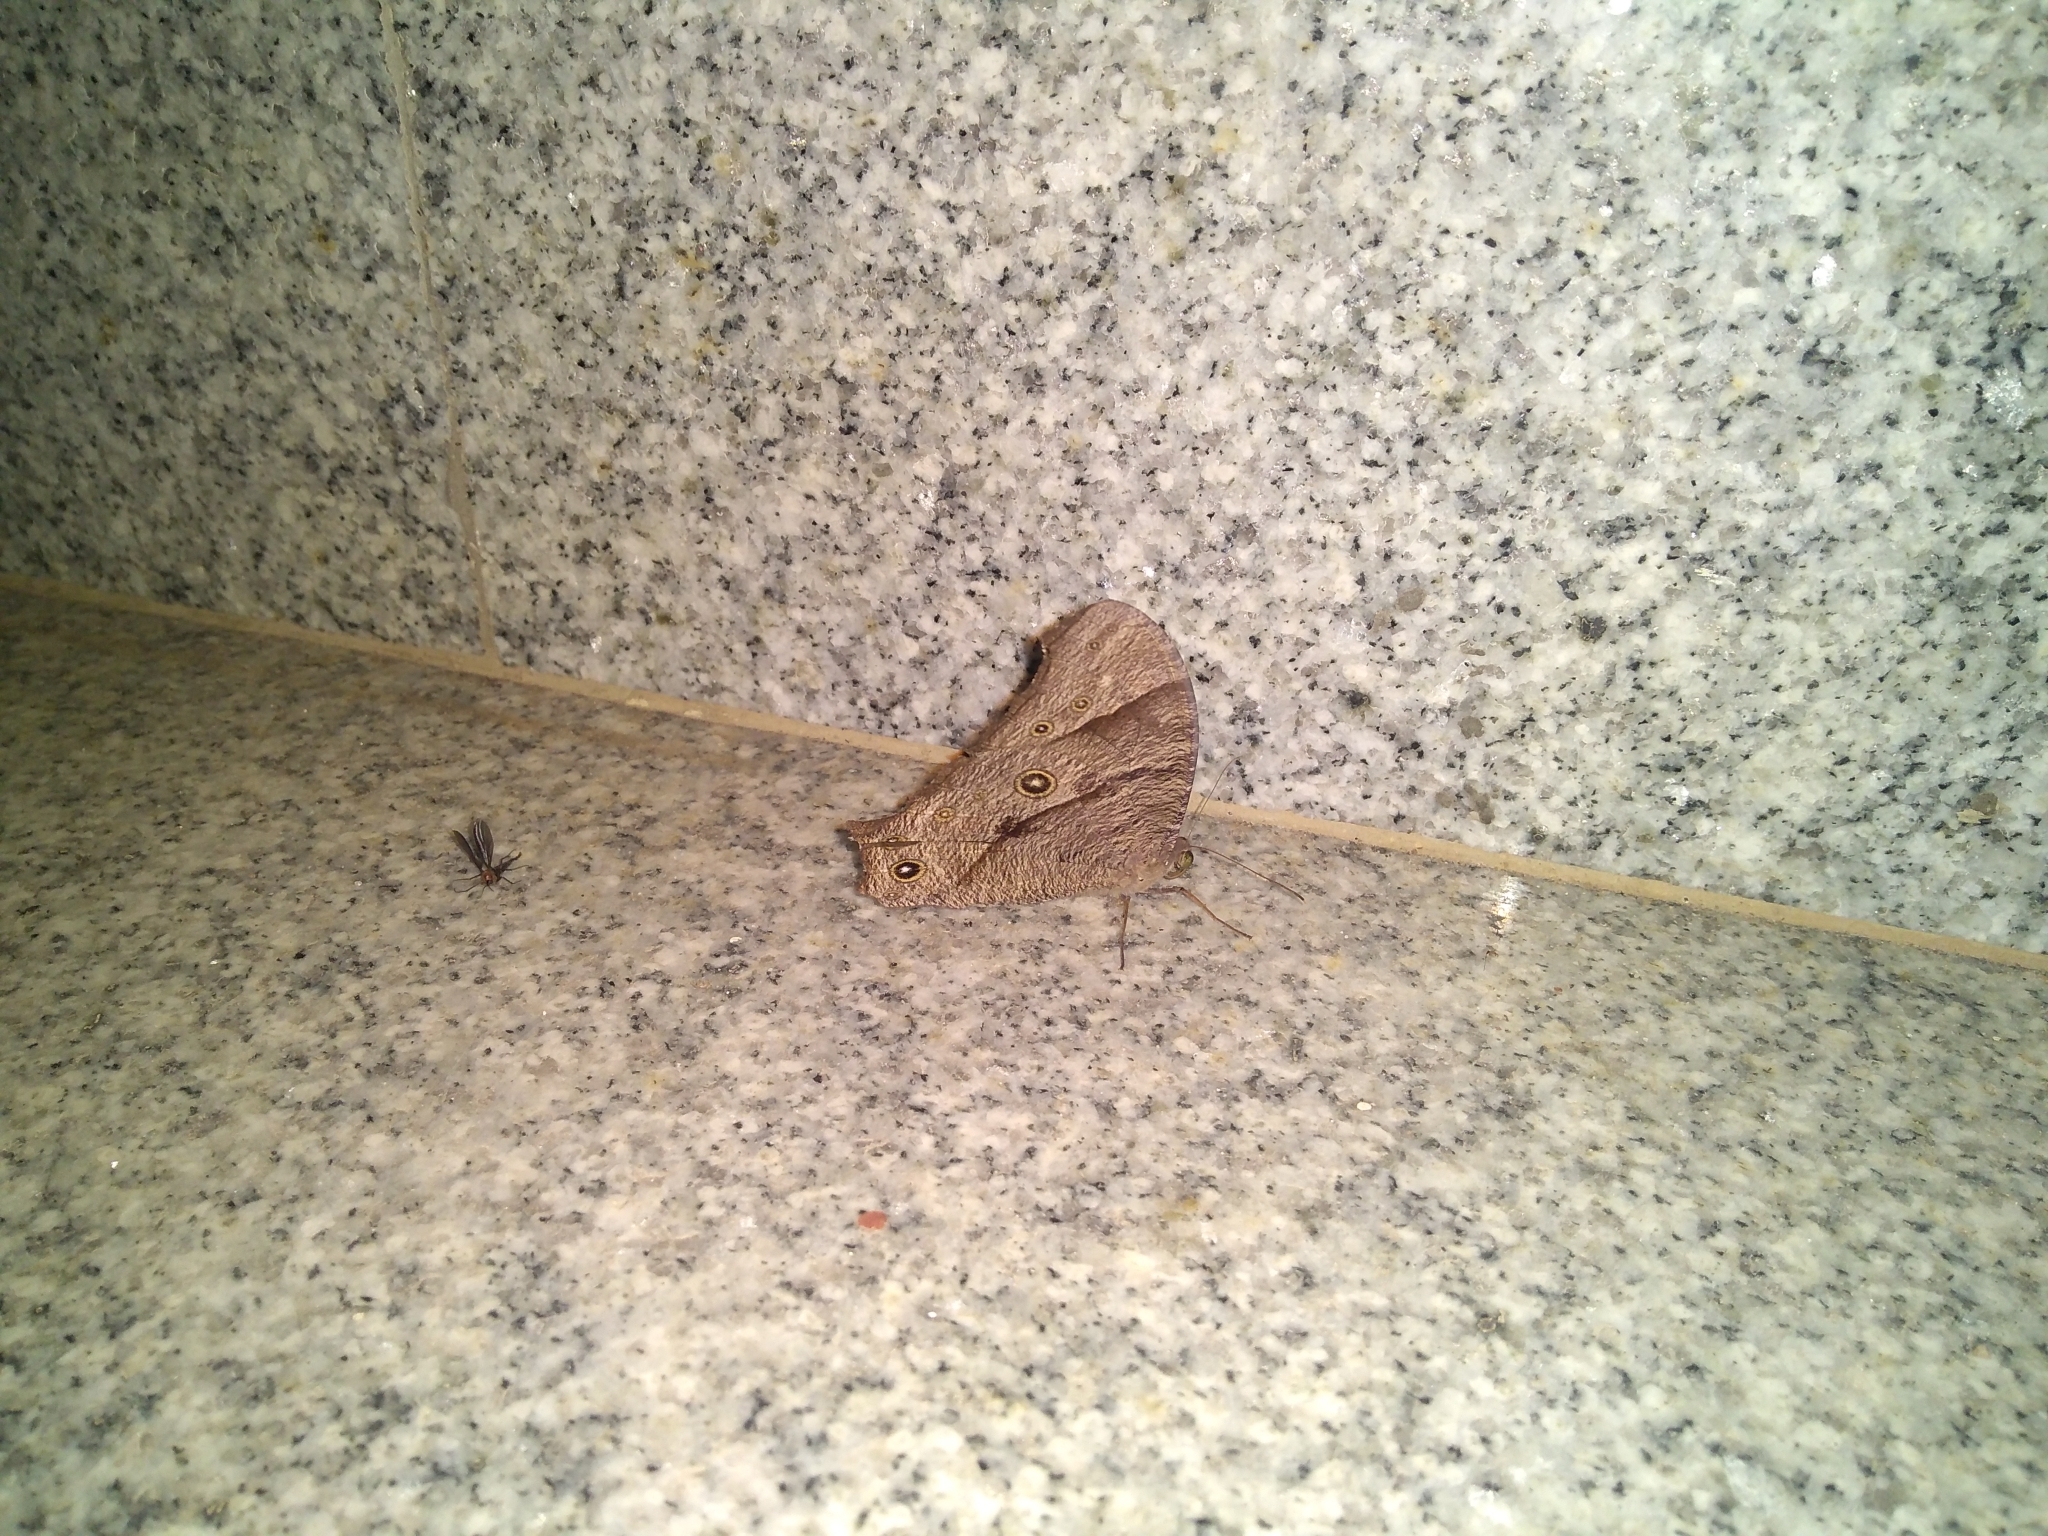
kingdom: Animalia
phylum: Arthropoda
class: Insecta
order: Lepidoptera
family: Nymphalidae
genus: Melanitis
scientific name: Melanitis leda
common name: Twilight brown
